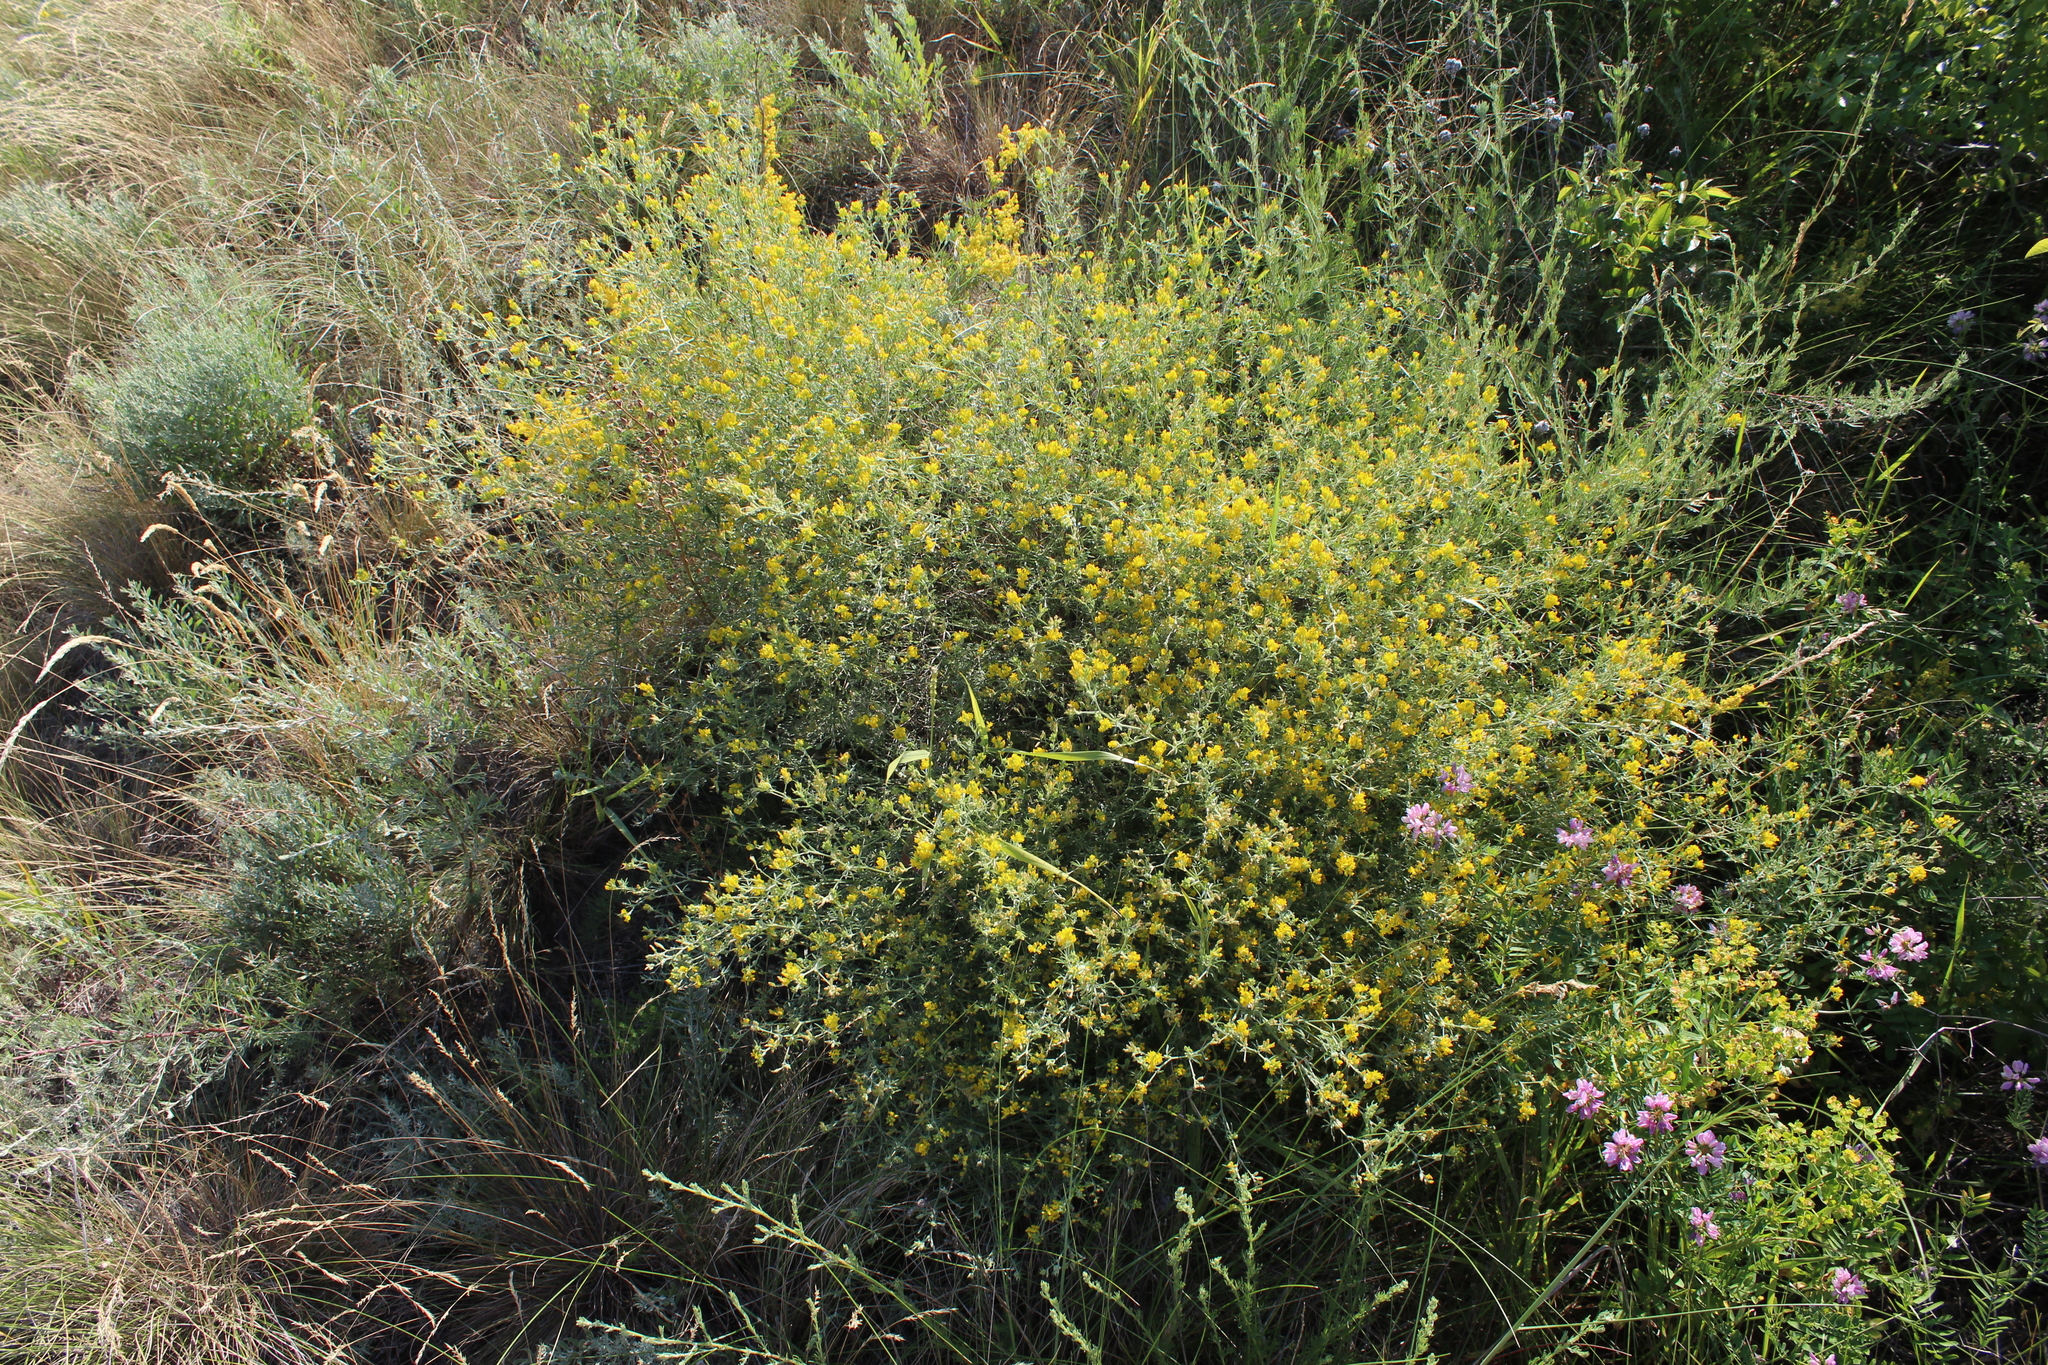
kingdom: Plantae
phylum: Tracheophyta
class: Magnoliopsida
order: Fabales
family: Fabaceae
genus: Medicago
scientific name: Medicago falcata
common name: Sickle medick
